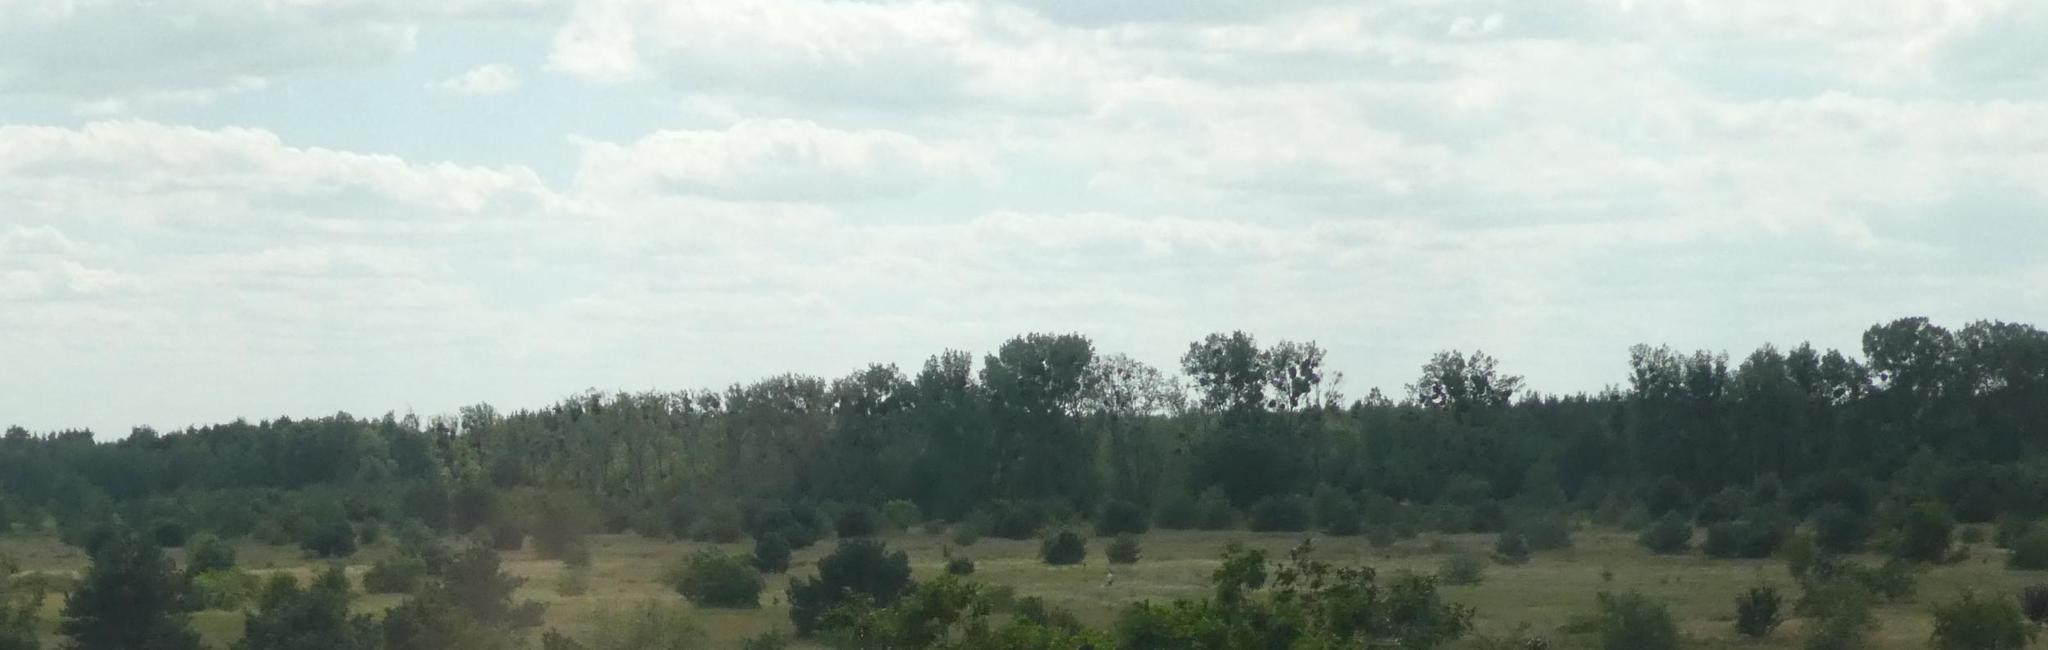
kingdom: Plantae
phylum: Tracheophyta
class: Magnoliopsida
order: Santalales
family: Viscaceae
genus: Viscum
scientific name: Viscum album
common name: Mistletoe
